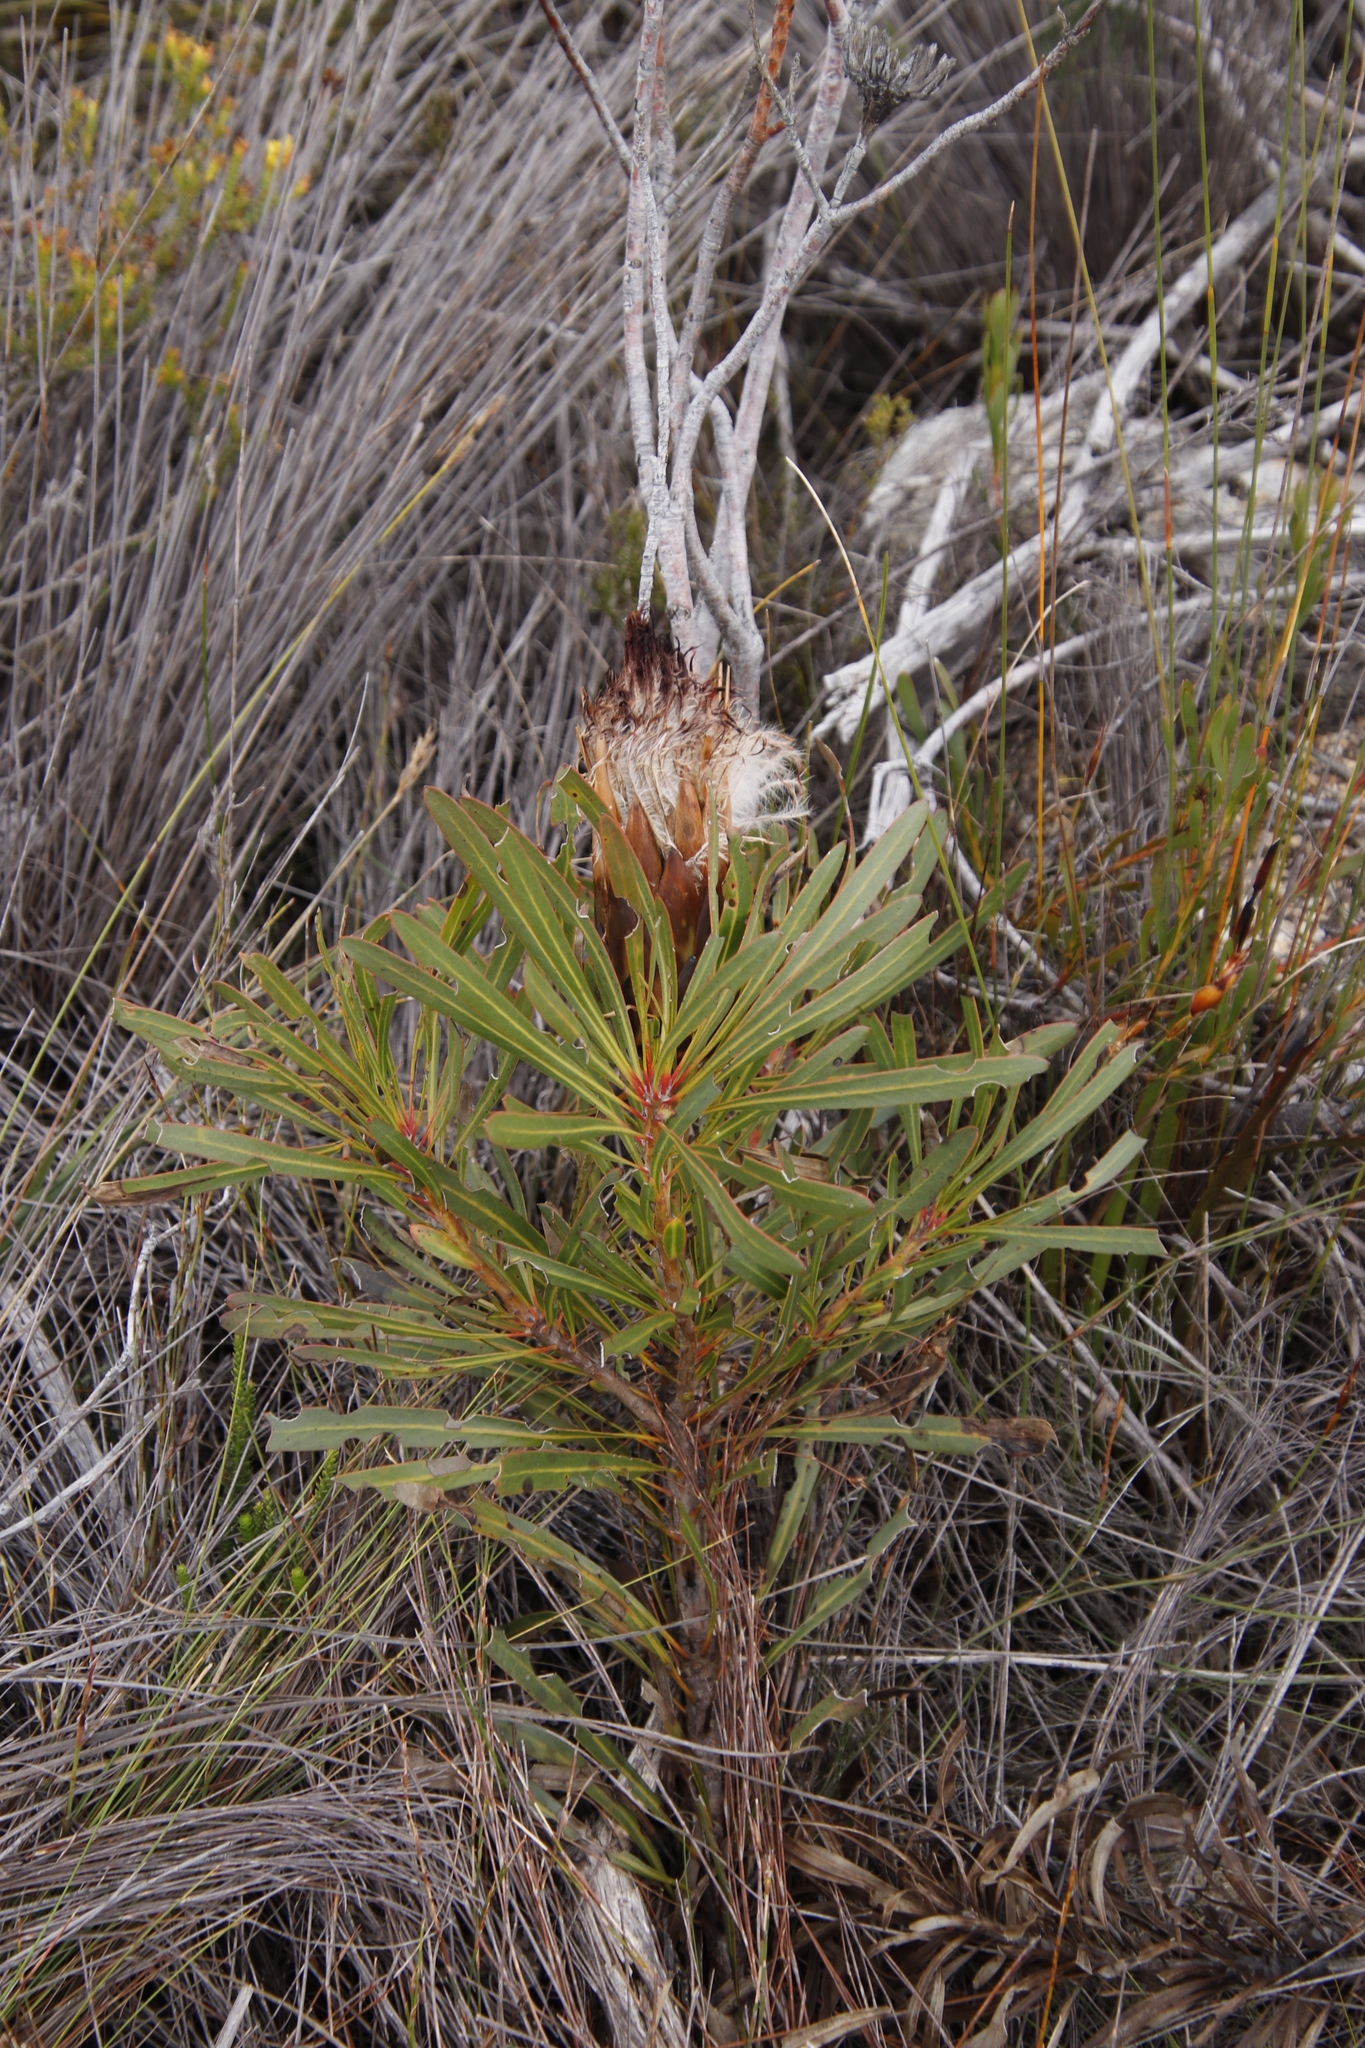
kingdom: Plantae
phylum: Tracheophyta
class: Magnoliopsida
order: Proteales
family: Proteaceae
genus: Protea
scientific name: Protea longifolia
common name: Long-leaf sugarbush
